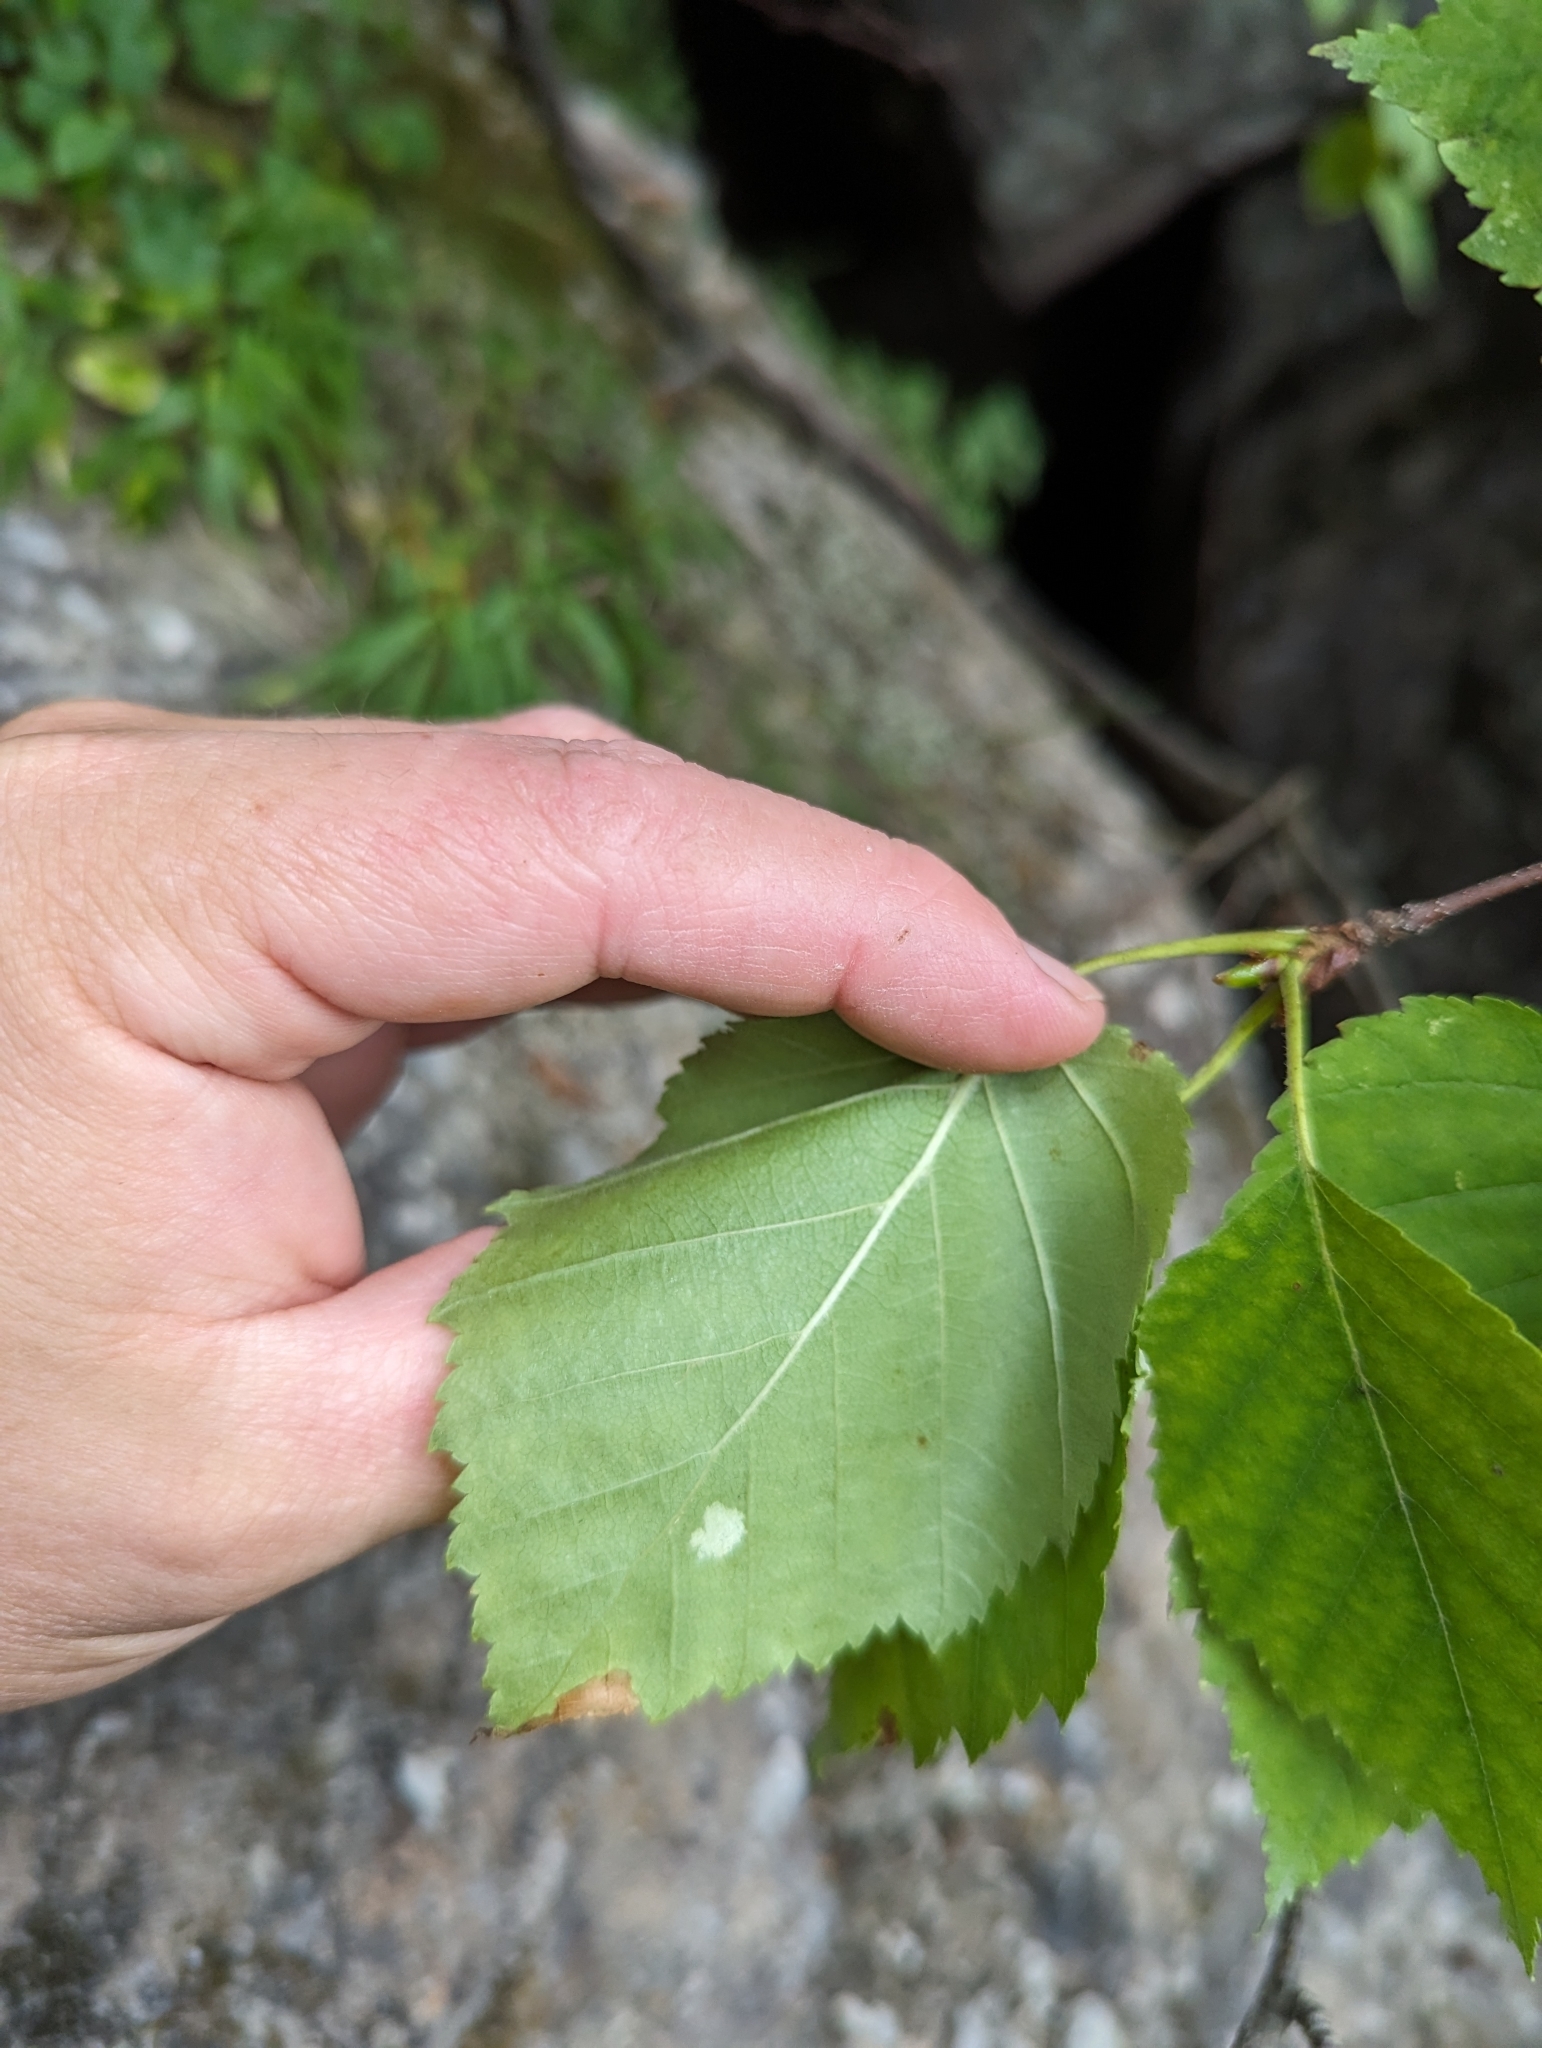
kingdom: Plantae
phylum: Tracheophyta
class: Magnoliopsida
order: Fagales
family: Betulaceae
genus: Betula
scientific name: Betula cordifolia
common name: Mountain white birch
